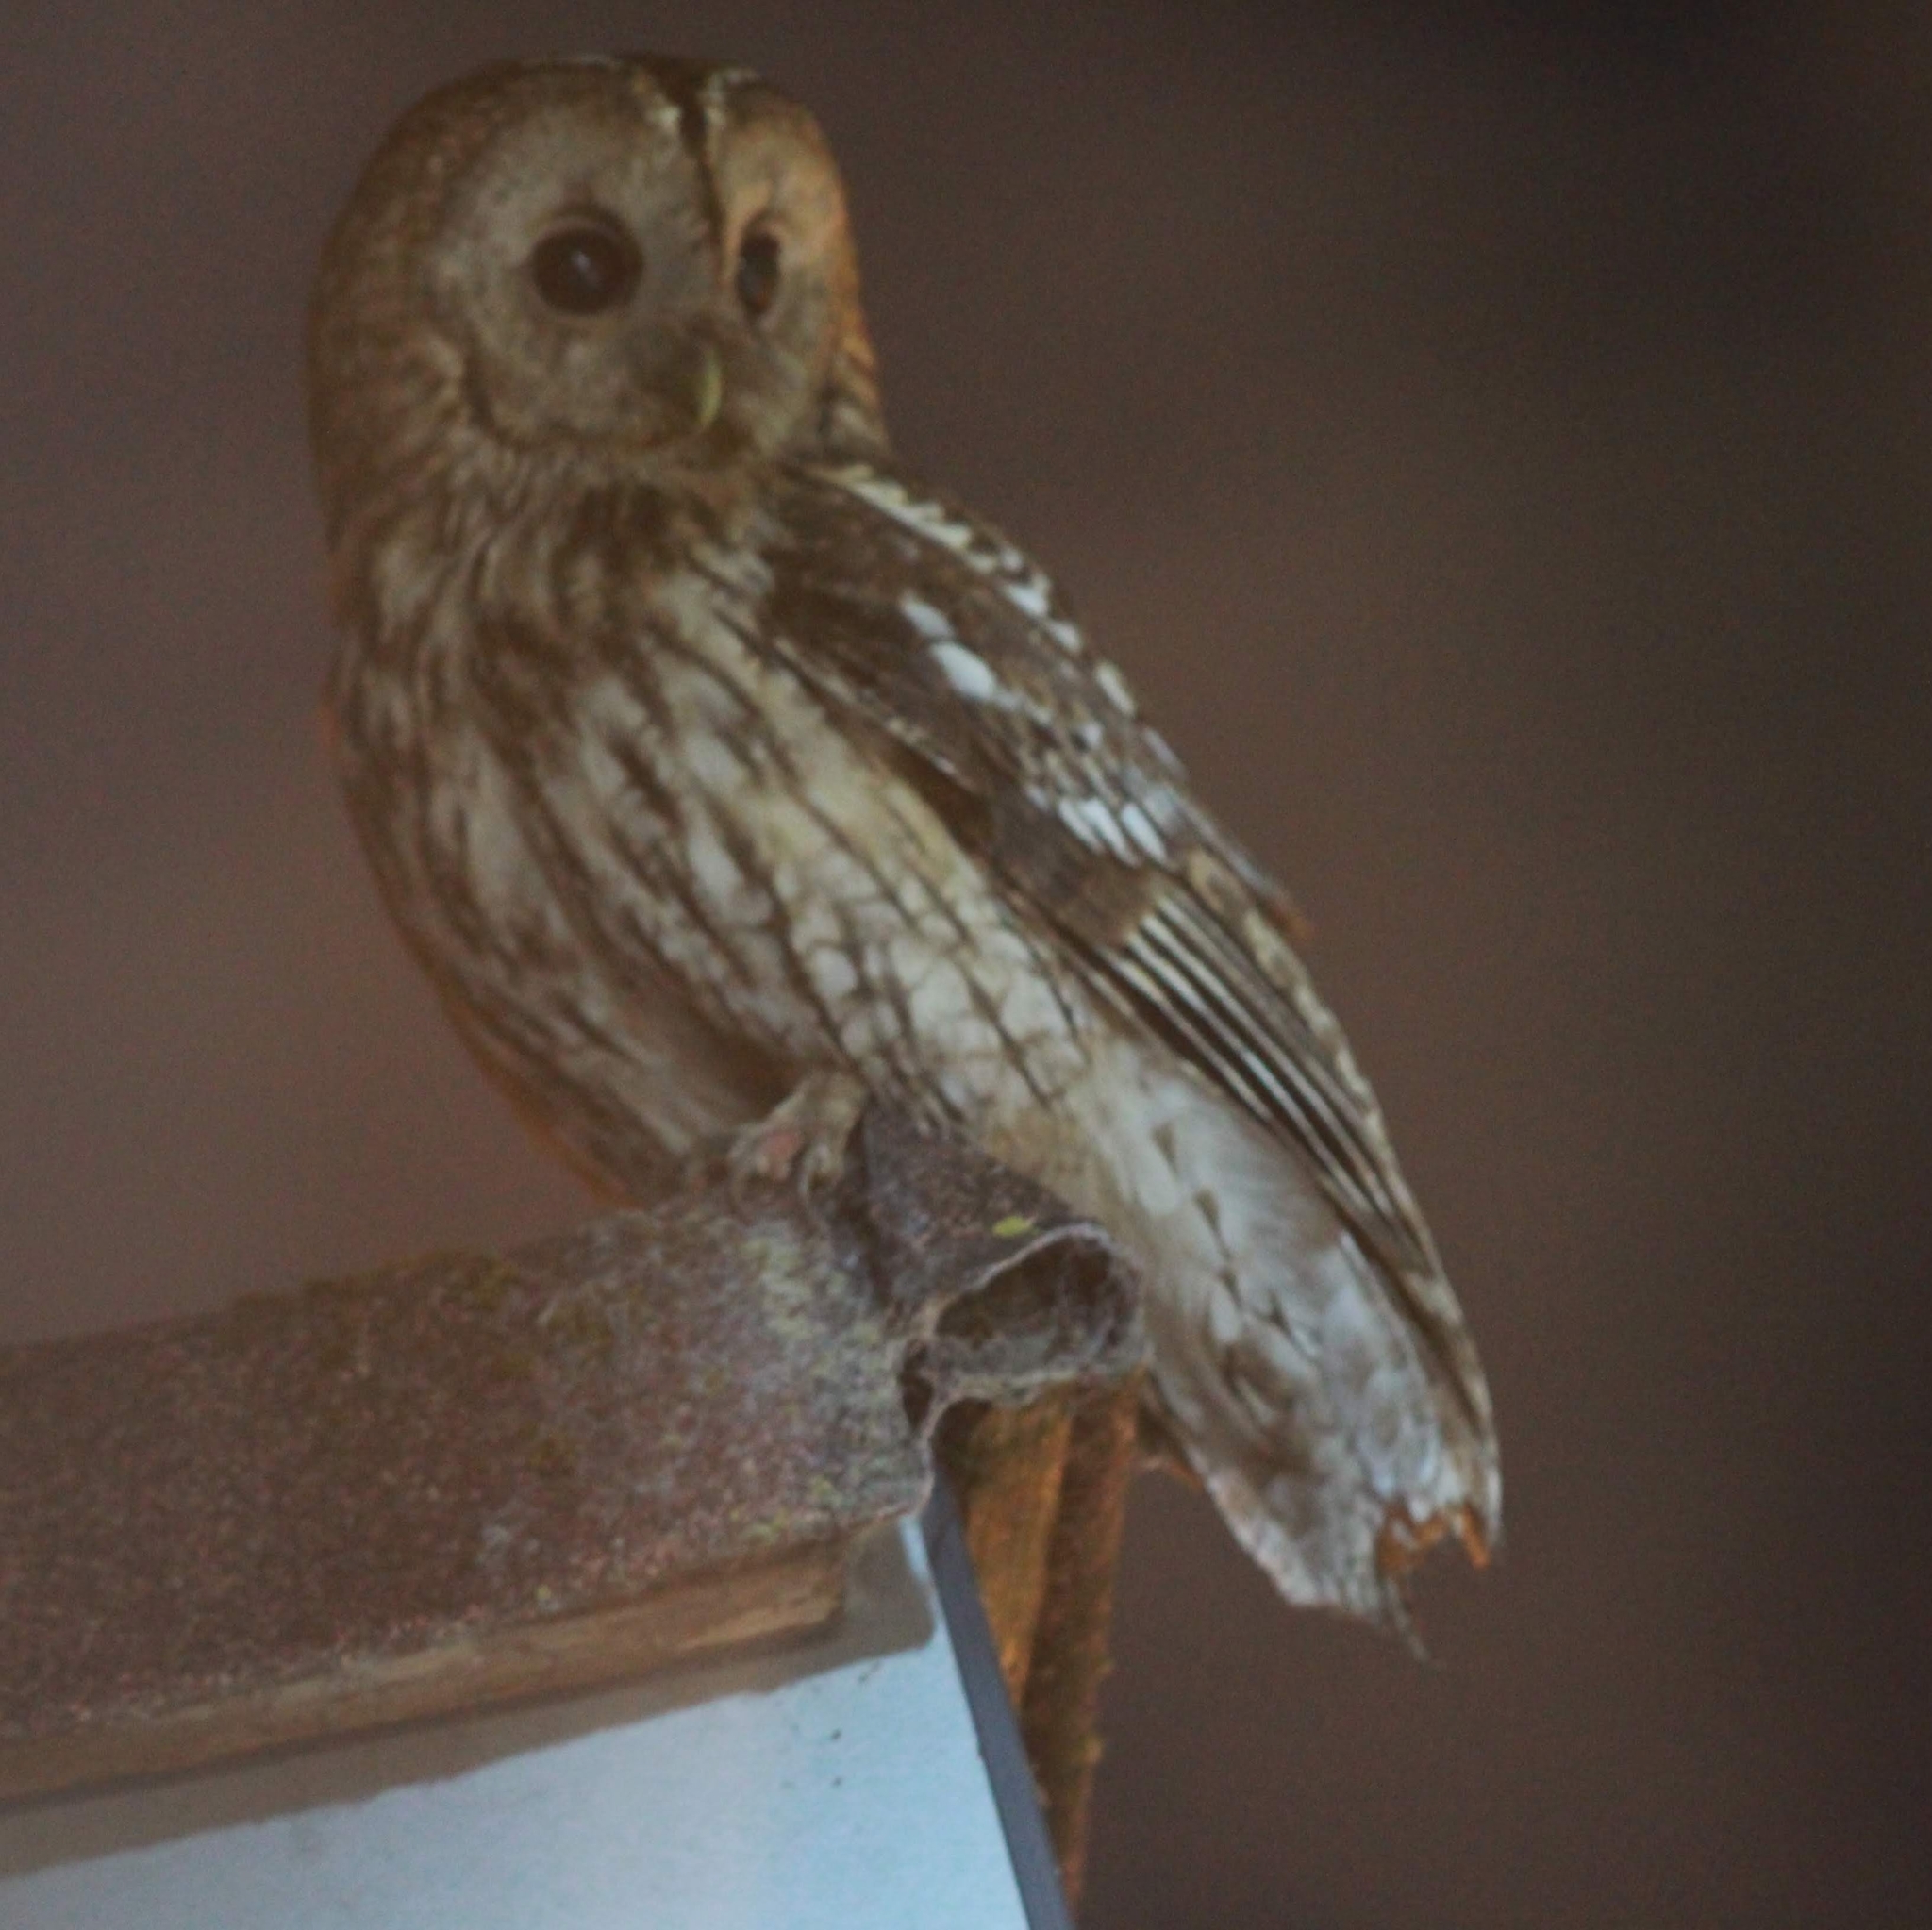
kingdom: Animalia
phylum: Chordata
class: Aves
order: Strigiformes
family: Strigidae
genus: Strix
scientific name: Strix aluco
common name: Tawny owl
